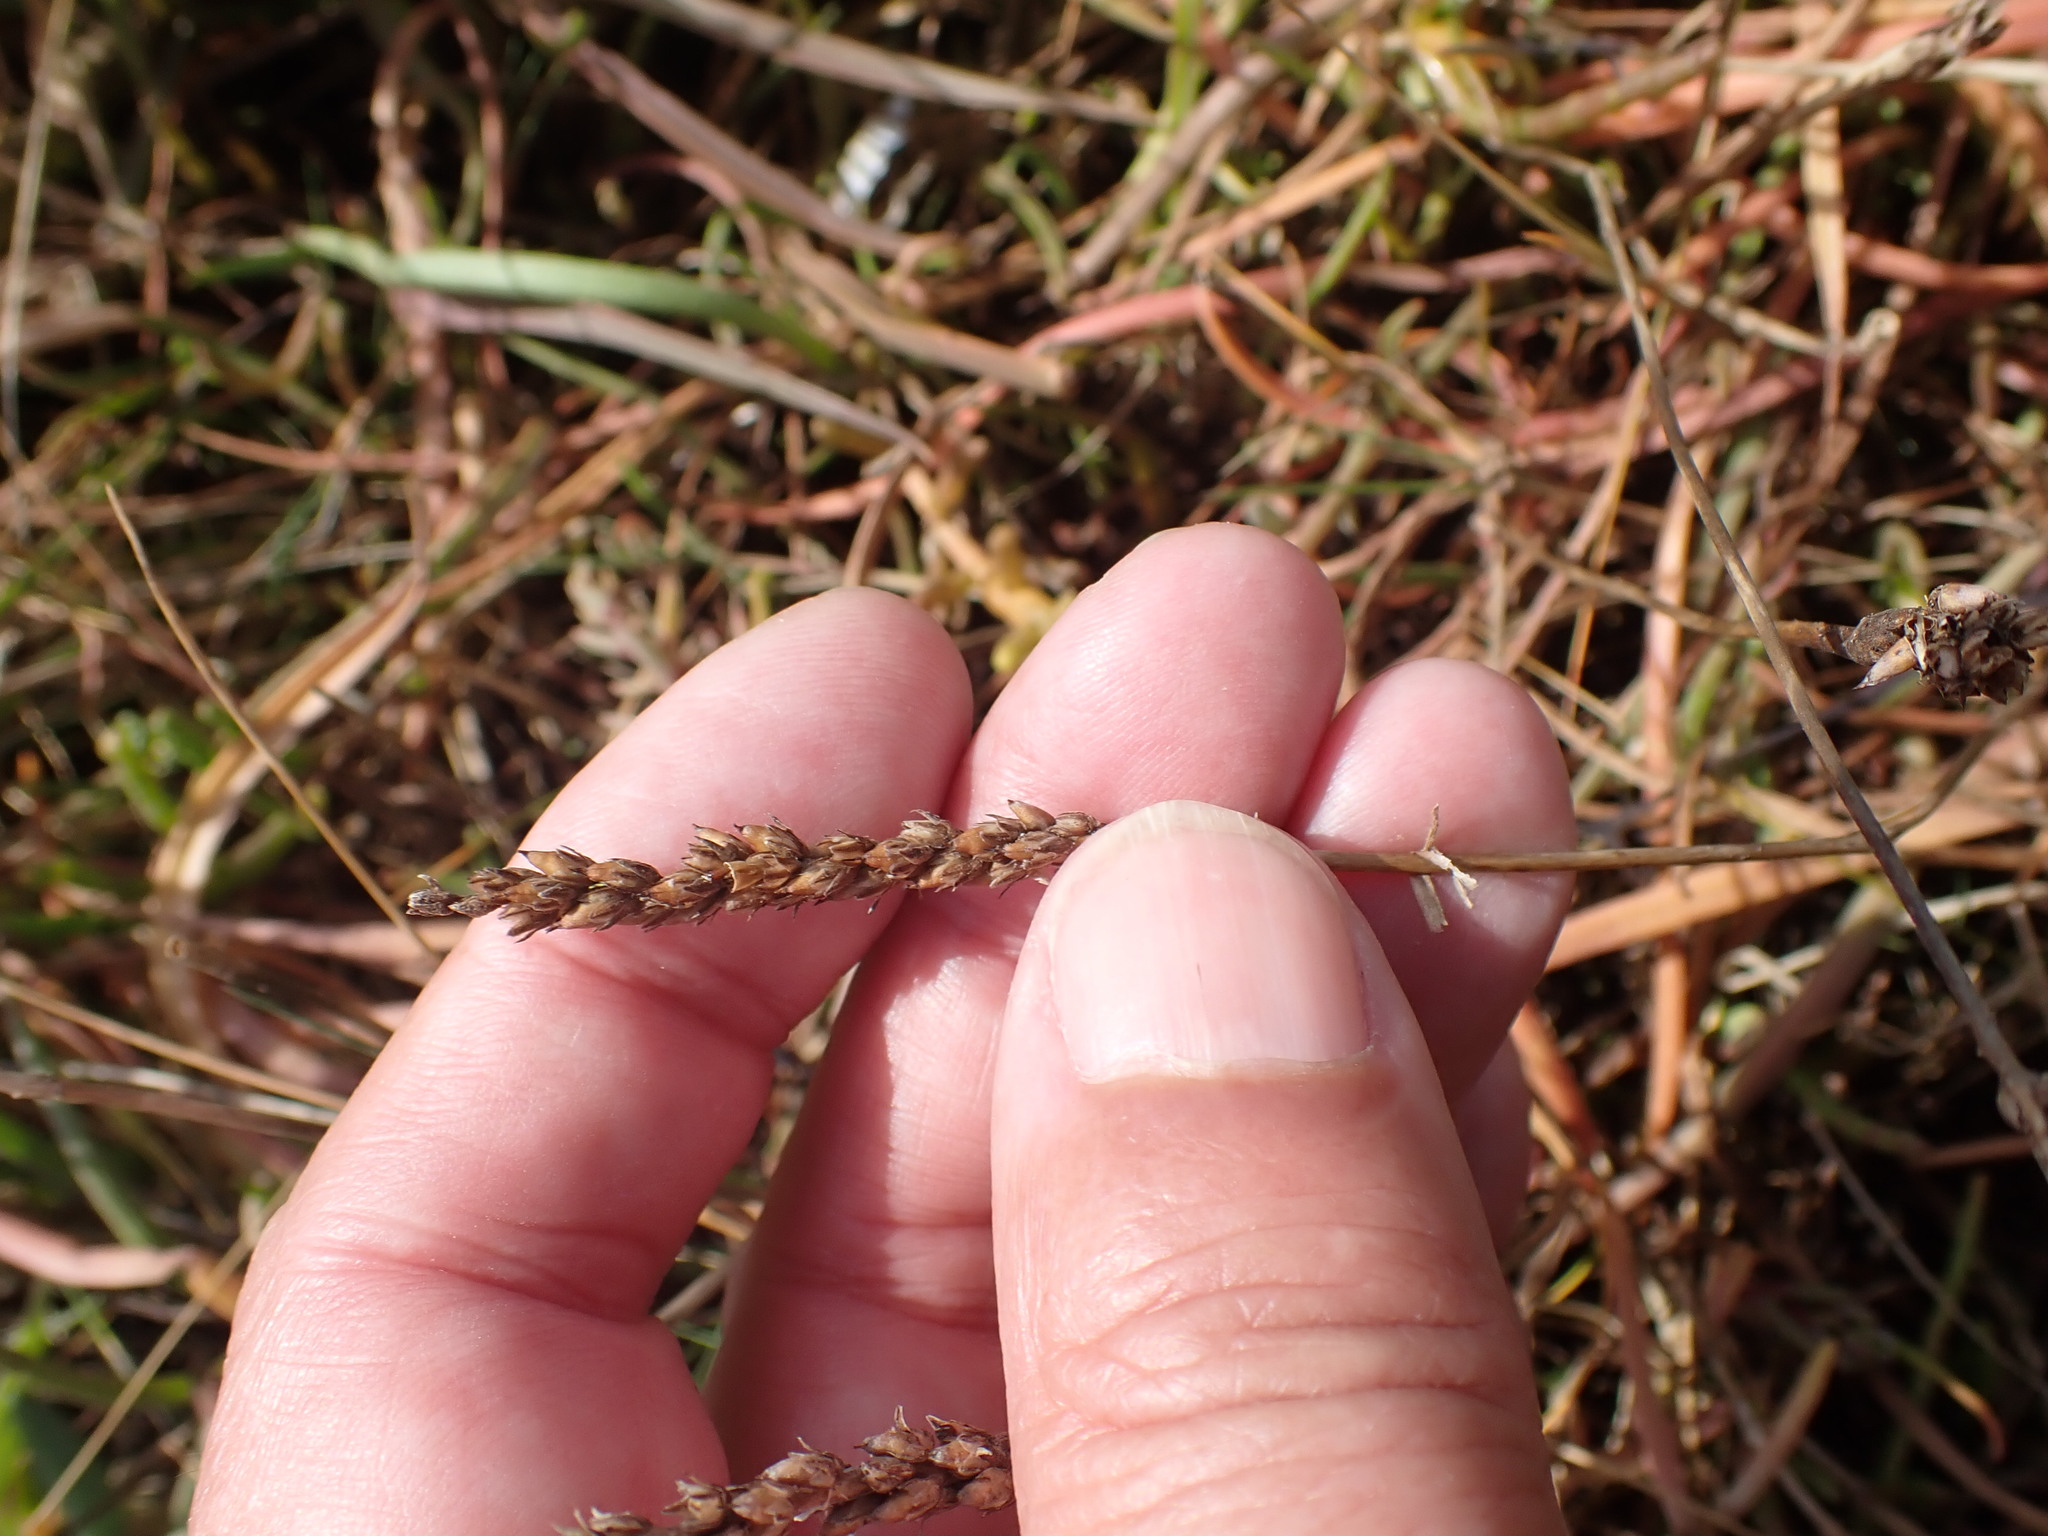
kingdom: Plantae
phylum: Tracheophyta
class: Magnoliopsida
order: Lamiales
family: Plantaginaceae
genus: Plantago
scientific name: Plantago maritima
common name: Sea plantain
